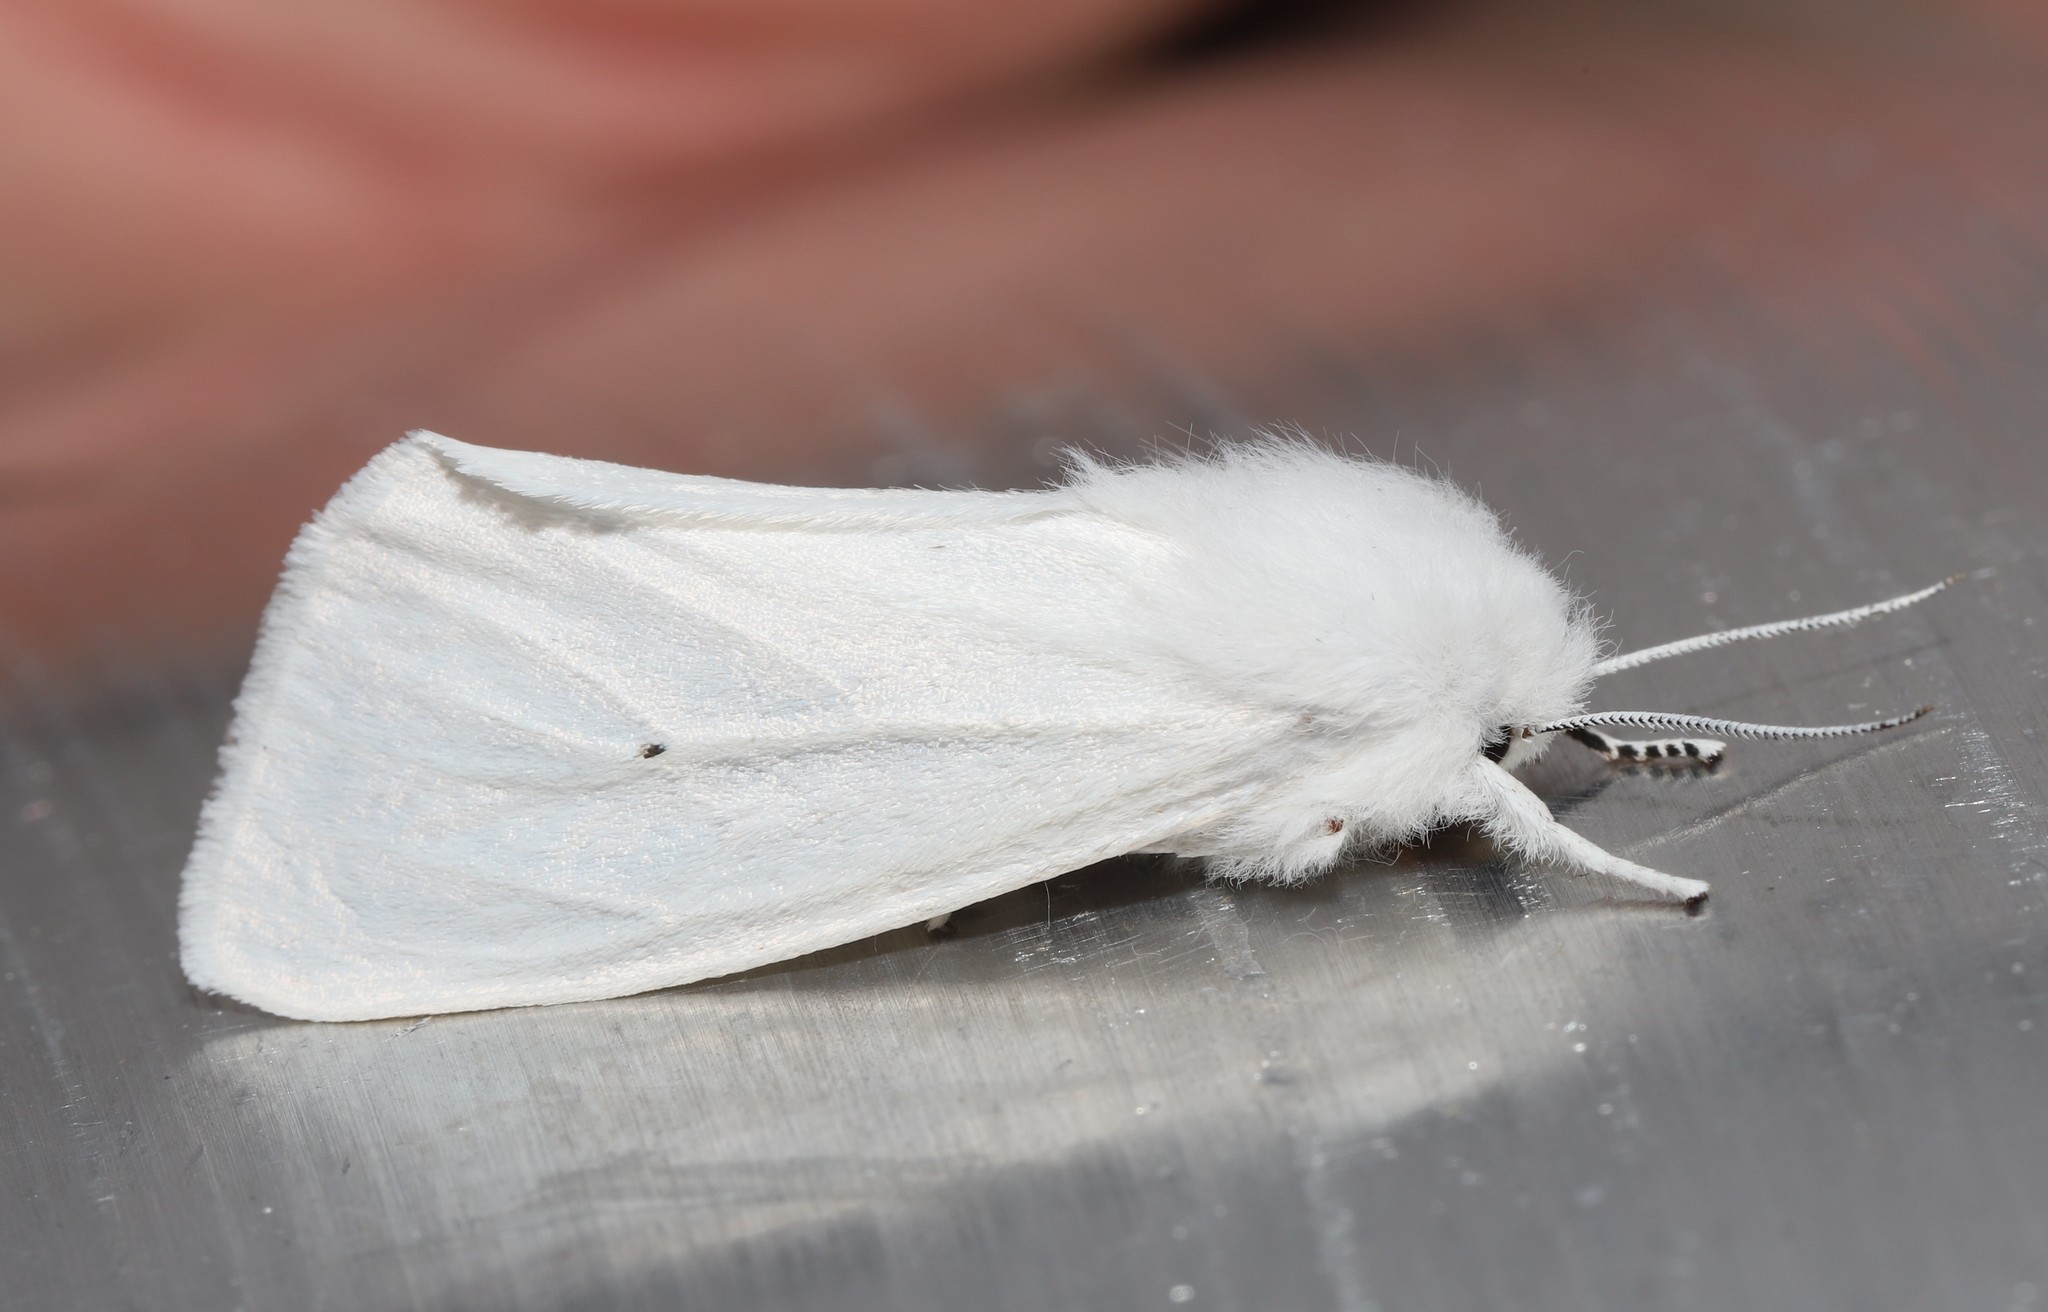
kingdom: Animalia
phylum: Arthropoda
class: Insecta
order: Lepidoptera
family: Erebidae
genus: Spilosoma
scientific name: Spilosoma virginica
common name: Virginia tiger moth
